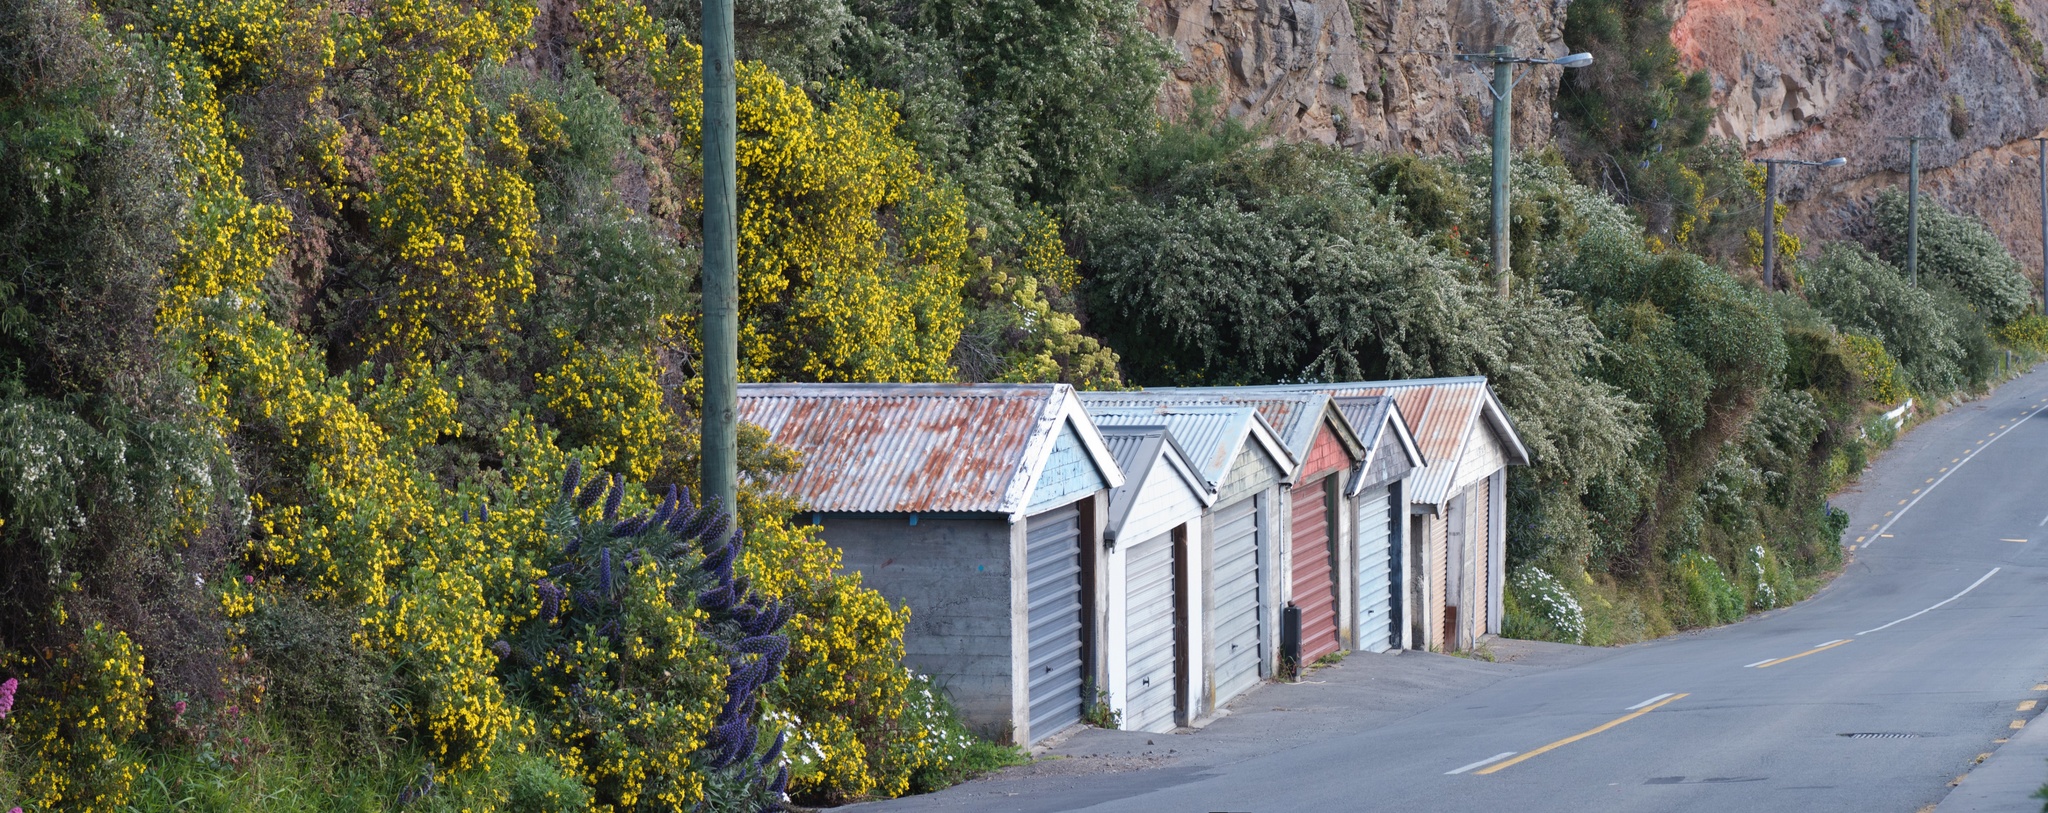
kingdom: Plantae
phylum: Tracheophyta
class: Magnoliopsida
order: Asterales
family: Asteraceae
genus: Osteospermum
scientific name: Osteospermum moniliferum
